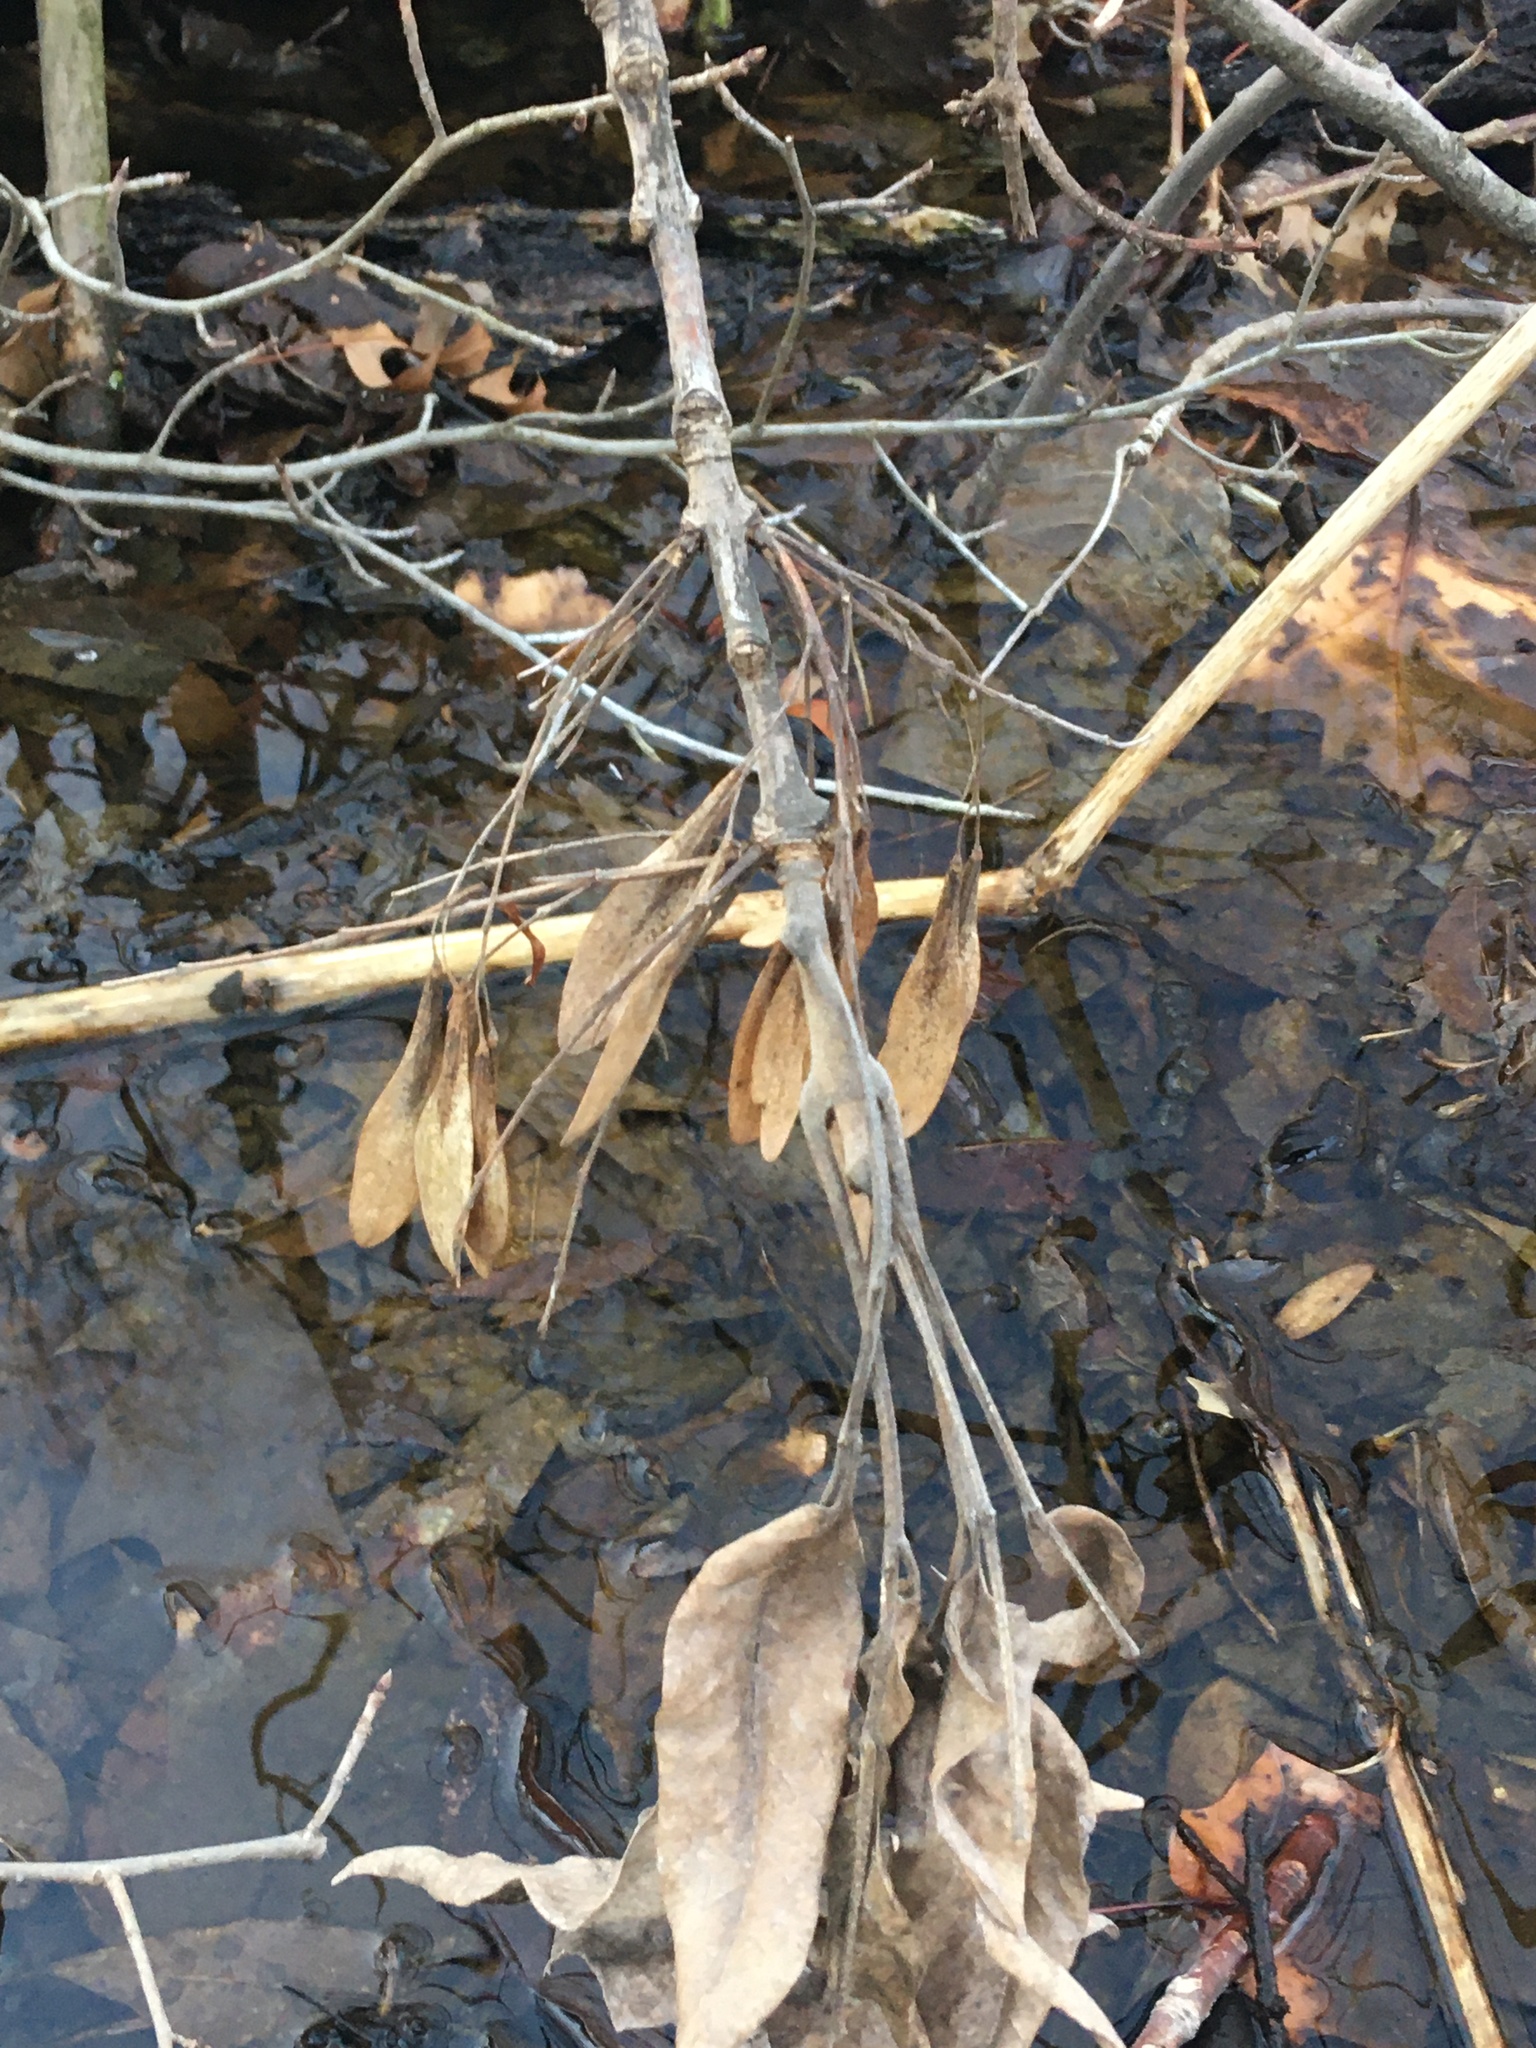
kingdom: Plantae
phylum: Tracheophyta
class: Magnoliopsida
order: Lamiales
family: Oleaceae
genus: Fraxinus
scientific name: Fraxinus profunda
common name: Pumpkin ash
